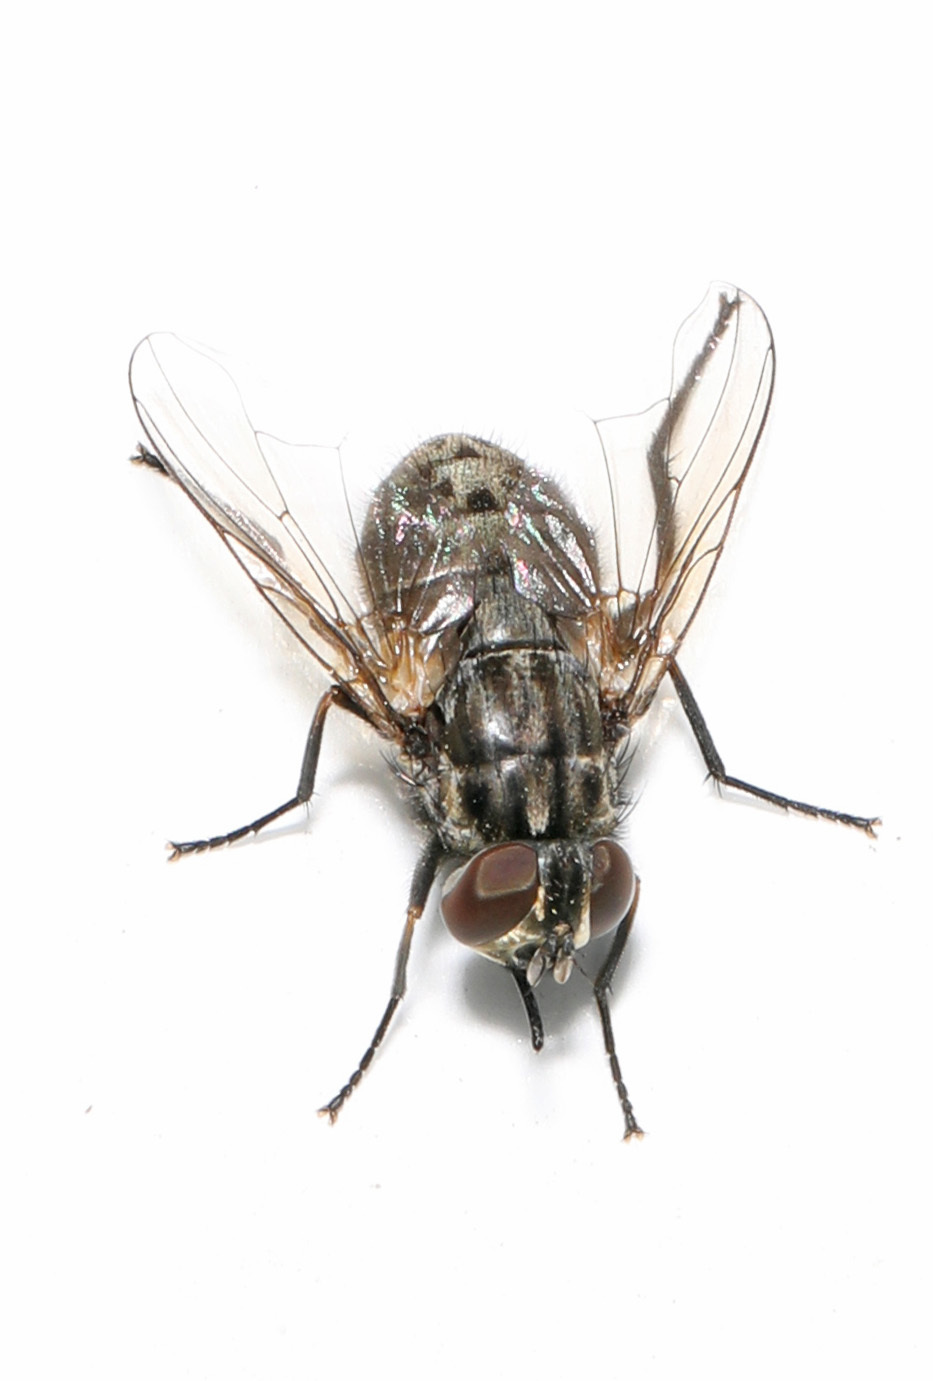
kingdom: Animalia
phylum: Arthropoda
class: Insecta
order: Diptera
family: Muscidae
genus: Stomoxys
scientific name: Stomoxys calcitrans
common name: Stable fly
